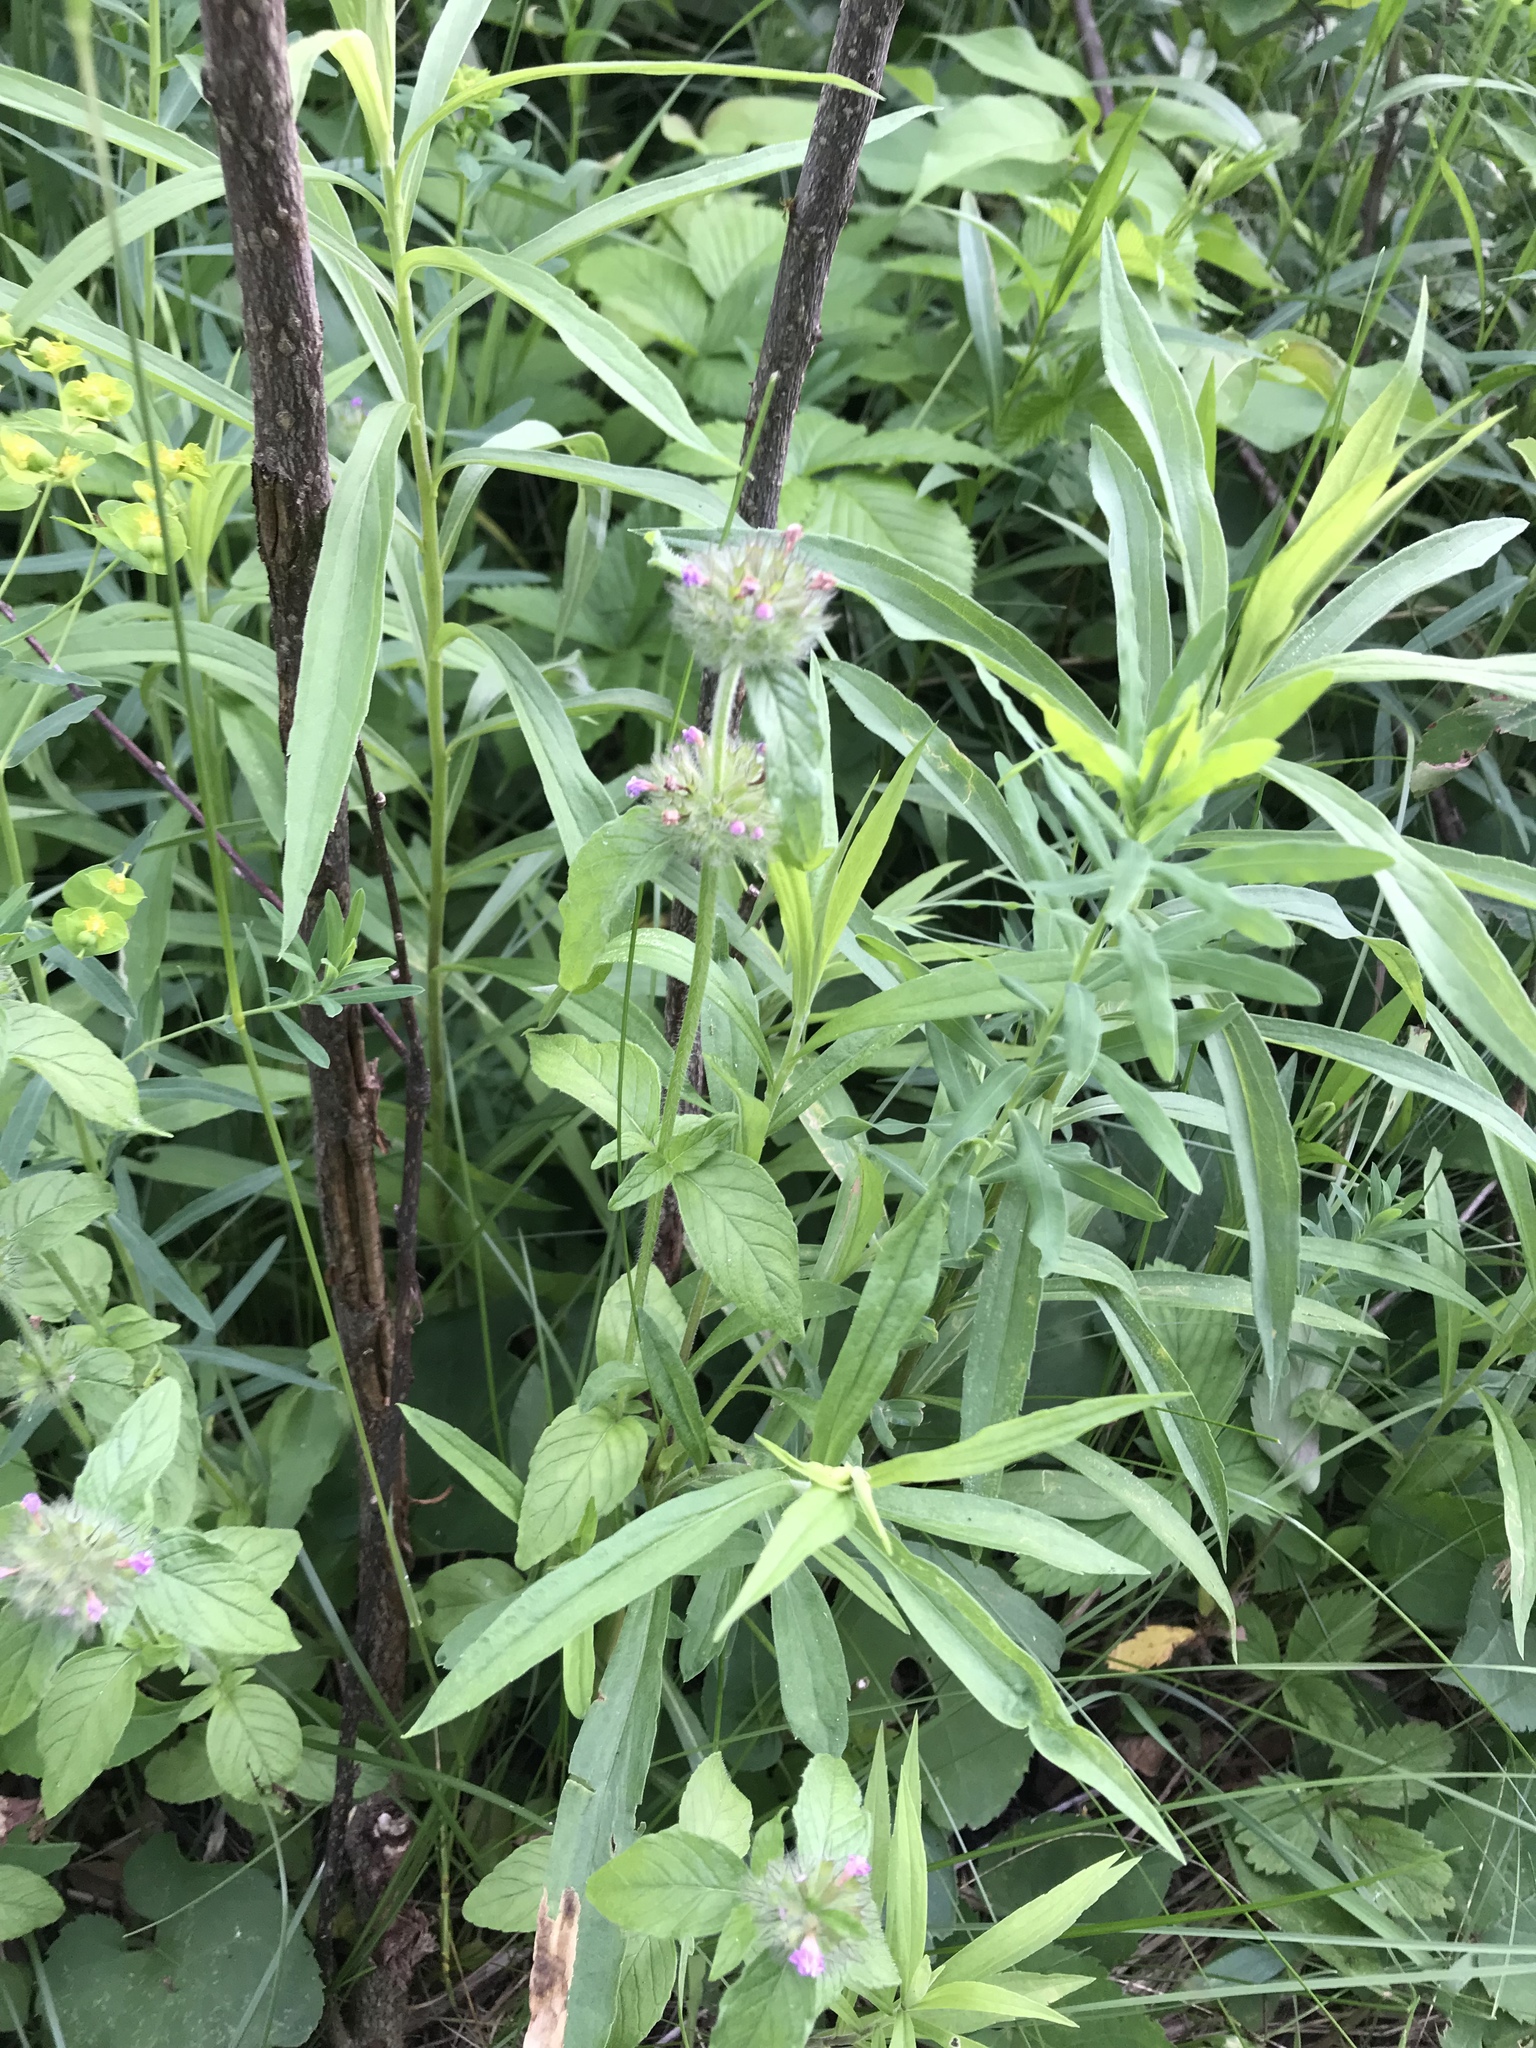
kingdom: Plantae
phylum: Tracheophyta
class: Magnoliopsida
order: Lamiales
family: Lamiaceae
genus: Clinopodium
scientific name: Clinopodium vulgare
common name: Wild basil
